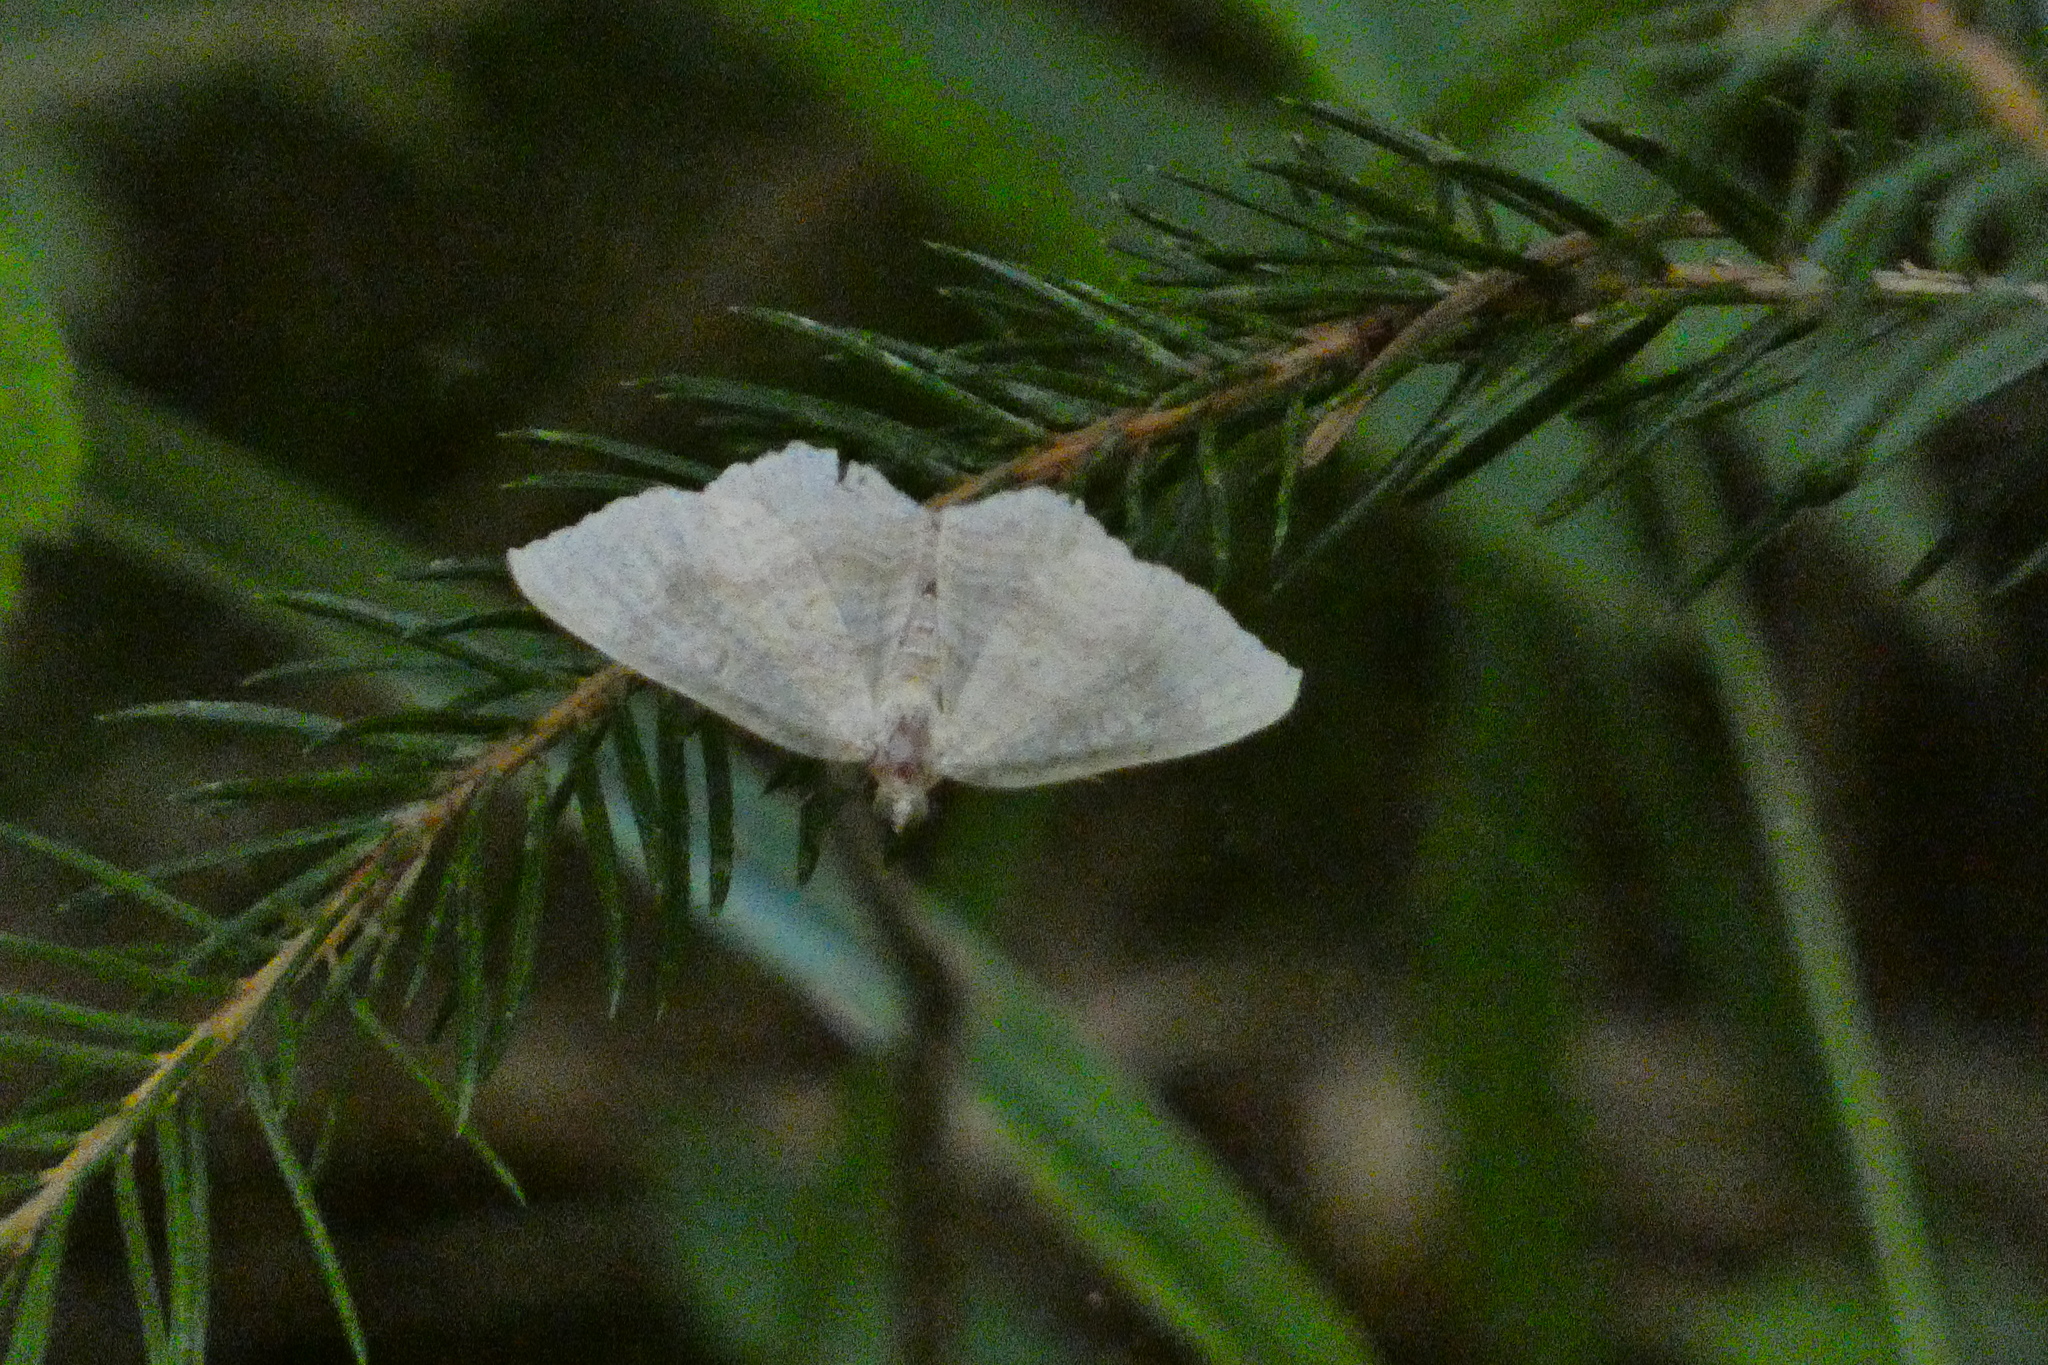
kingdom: Animalia
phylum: Arthropoda
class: Insecta
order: Lepidoptera
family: Geometridae
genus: Camptogramma
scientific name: Camptogramma bilineata
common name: Yellow shell
